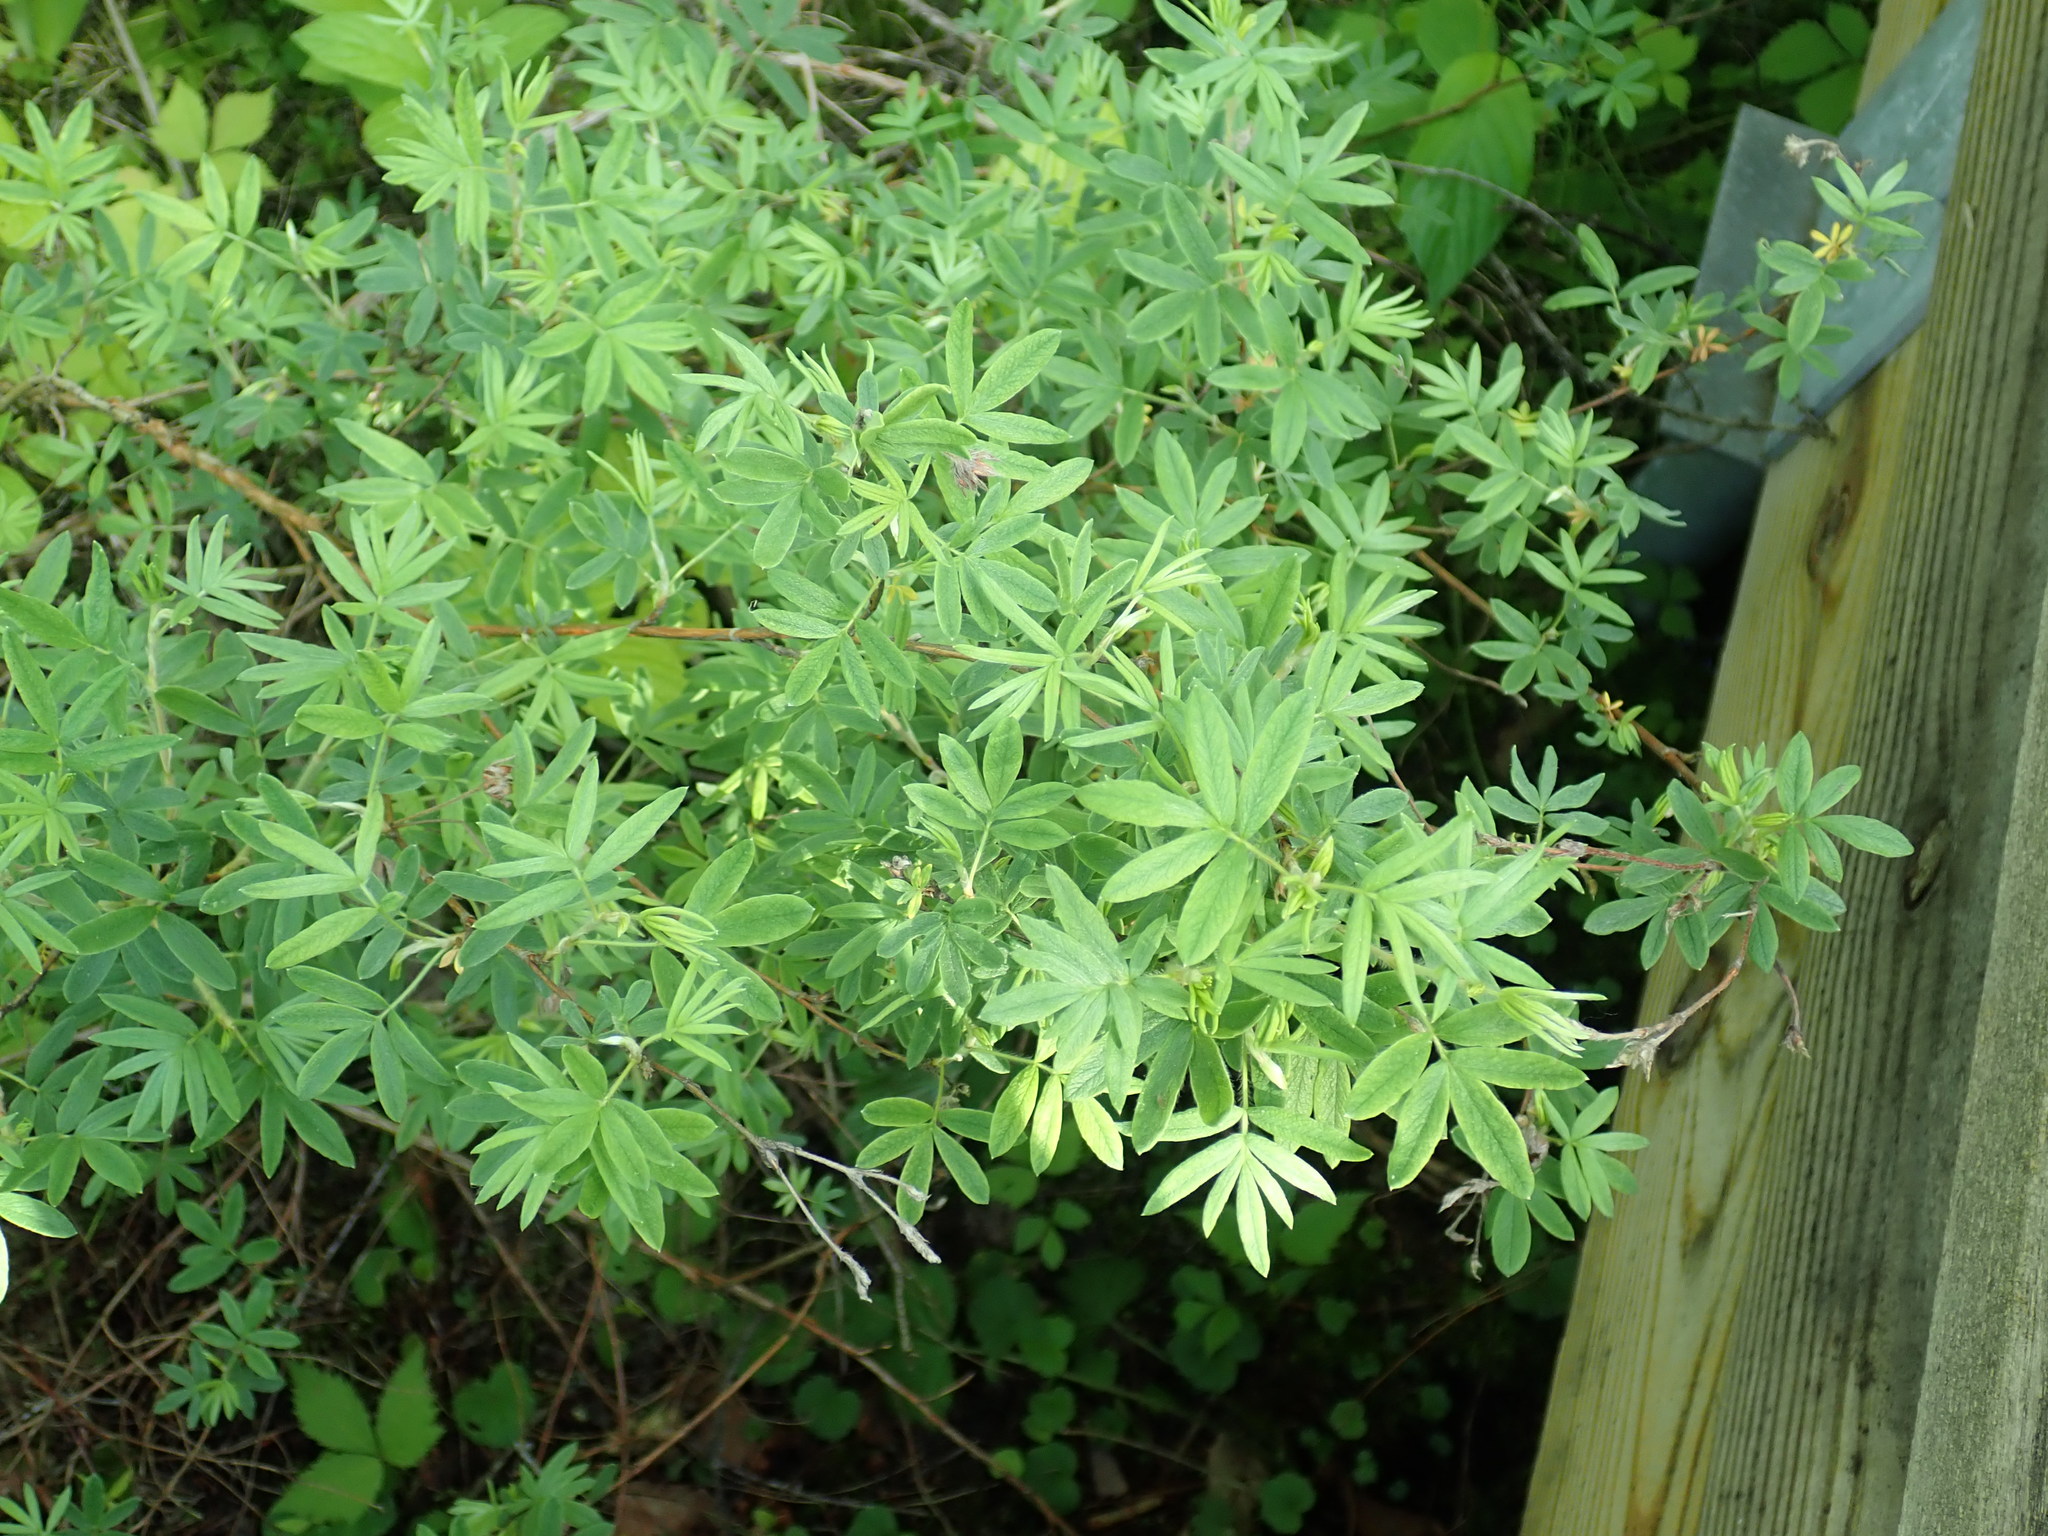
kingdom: Plantae
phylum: Tracheophyta
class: Magnoliopsida
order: Rosales
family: Rosaceae
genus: Dasiphora
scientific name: Dasiphora fruticosa
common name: Shrubby cinquefoil
